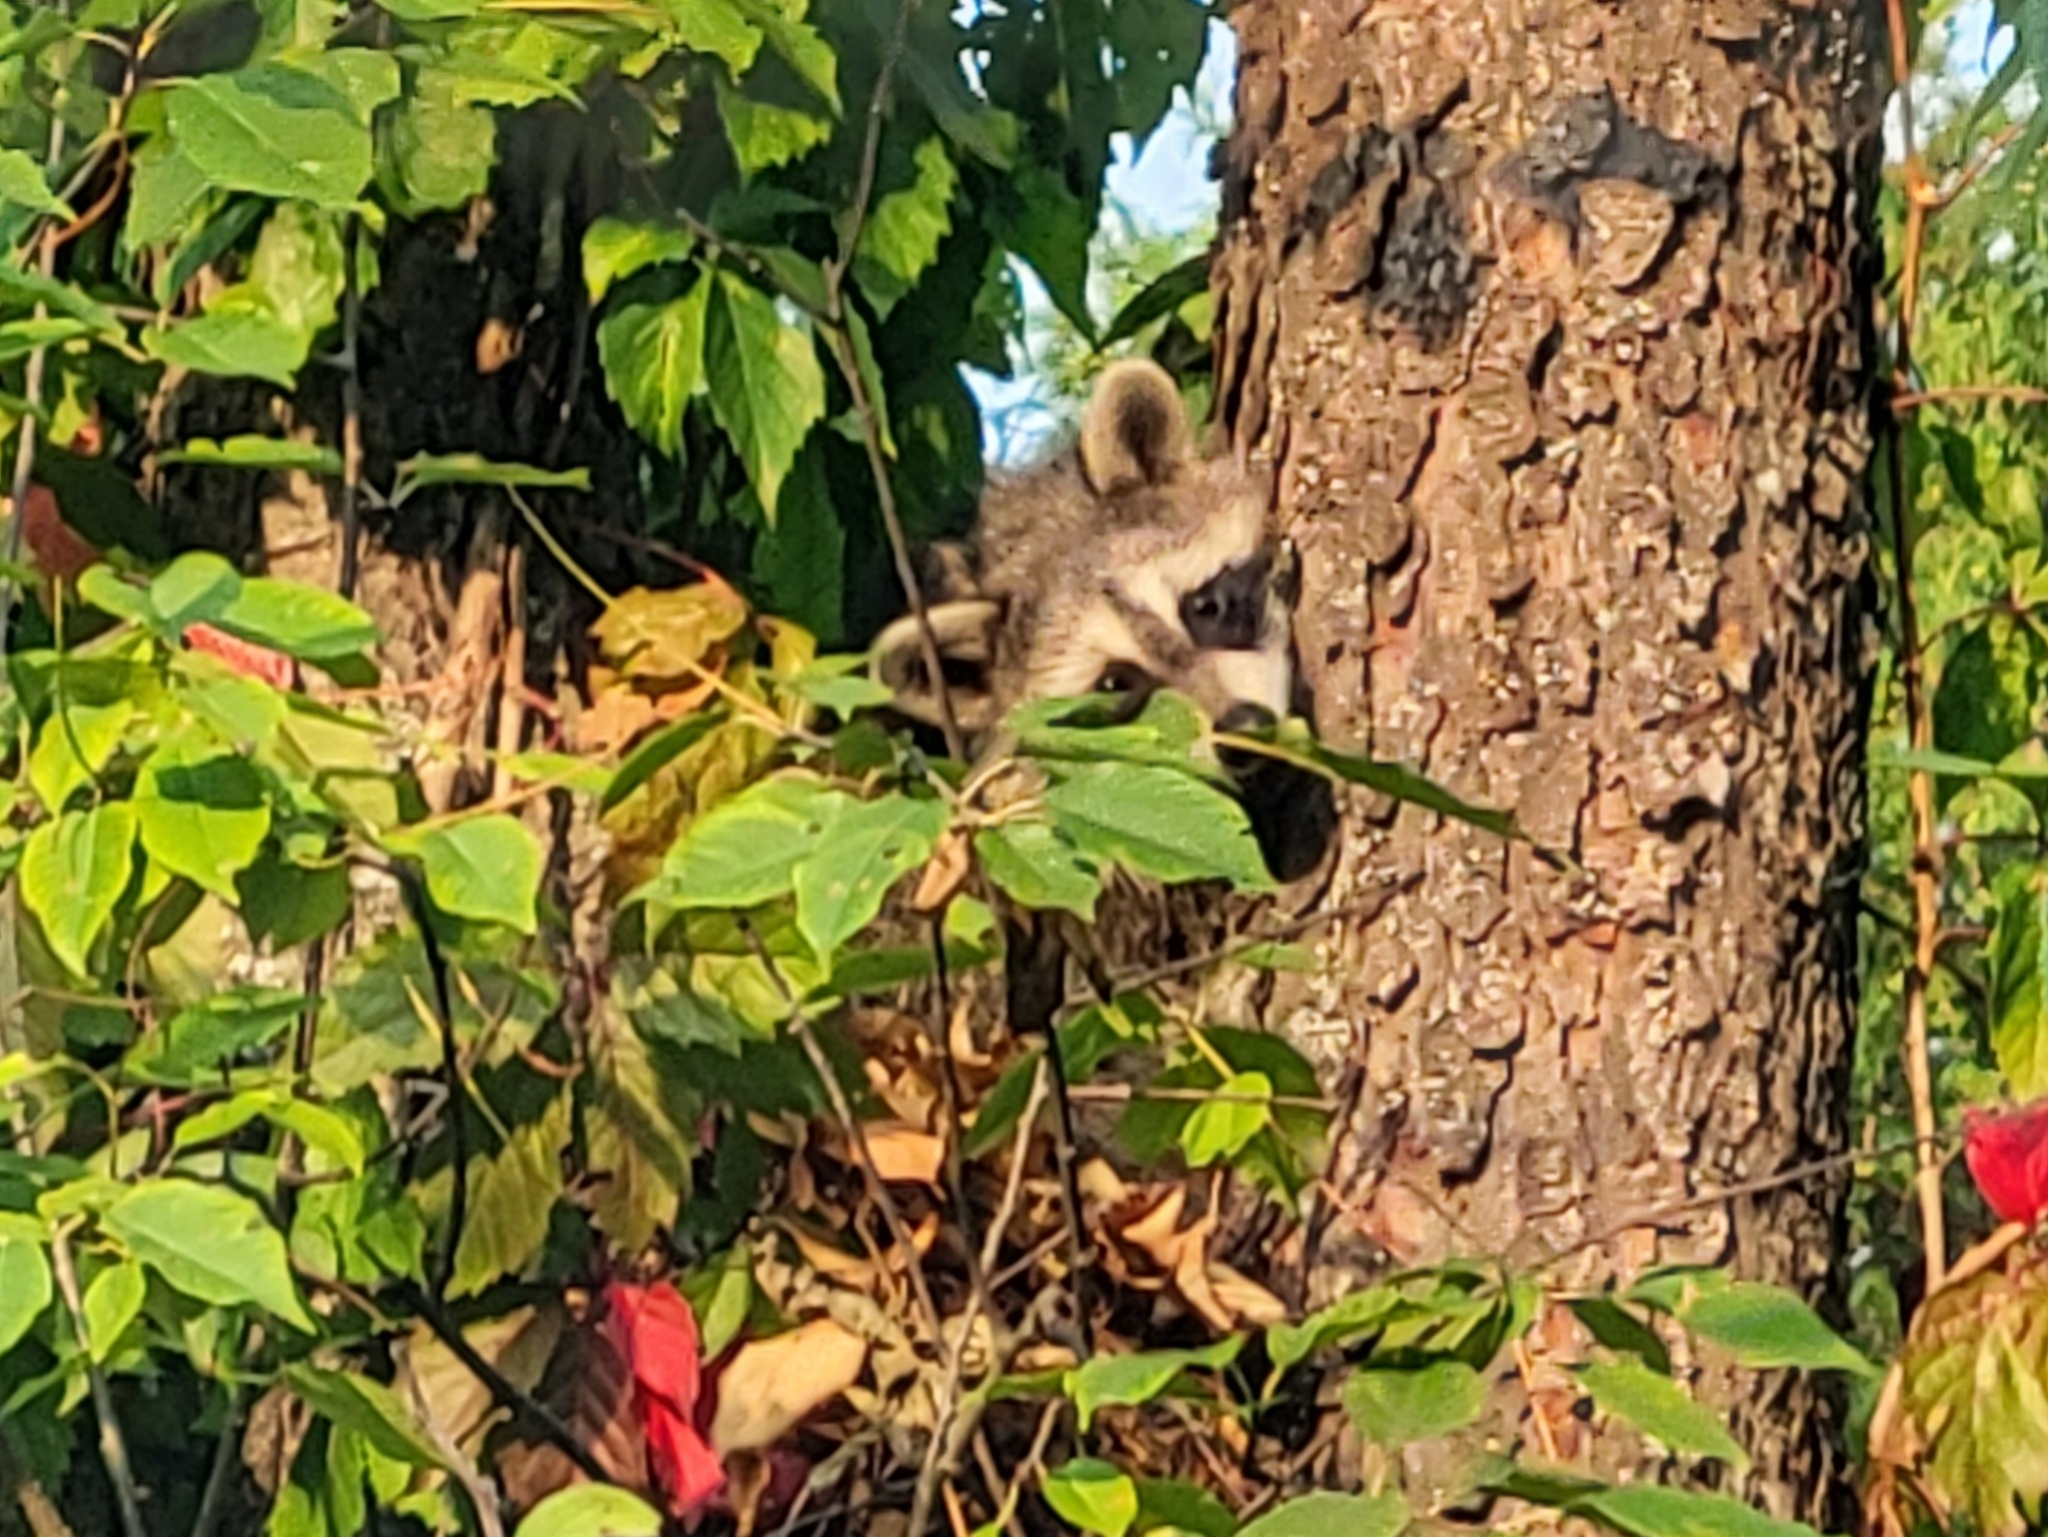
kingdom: Animalia
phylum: Chordata
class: Mammalia
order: Carnivora
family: Procyonidae
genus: Procyon
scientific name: Procyon lotor
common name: Raccoon
